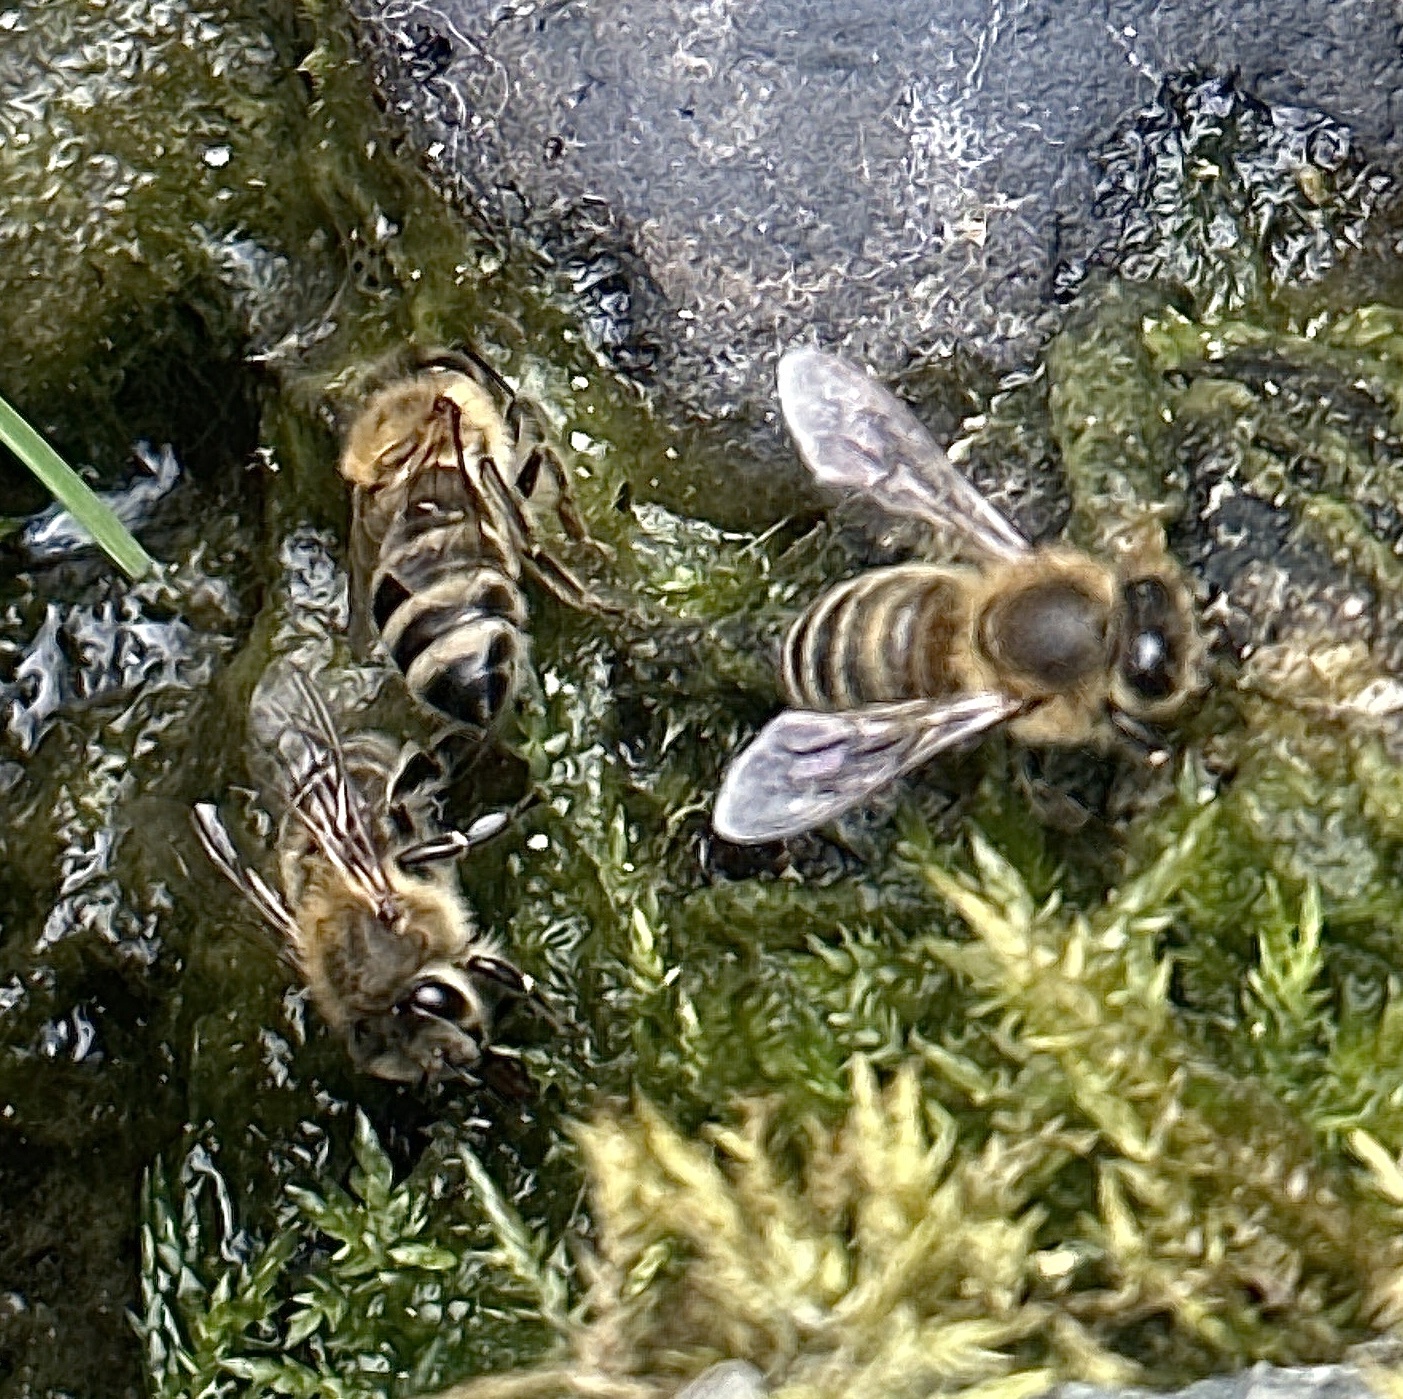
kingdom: Animalia
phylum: Arthropoda
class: Insecta
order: Hymenoptera
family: Apidae
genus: Apis
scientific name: Apis mellifera
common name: Honey bee
